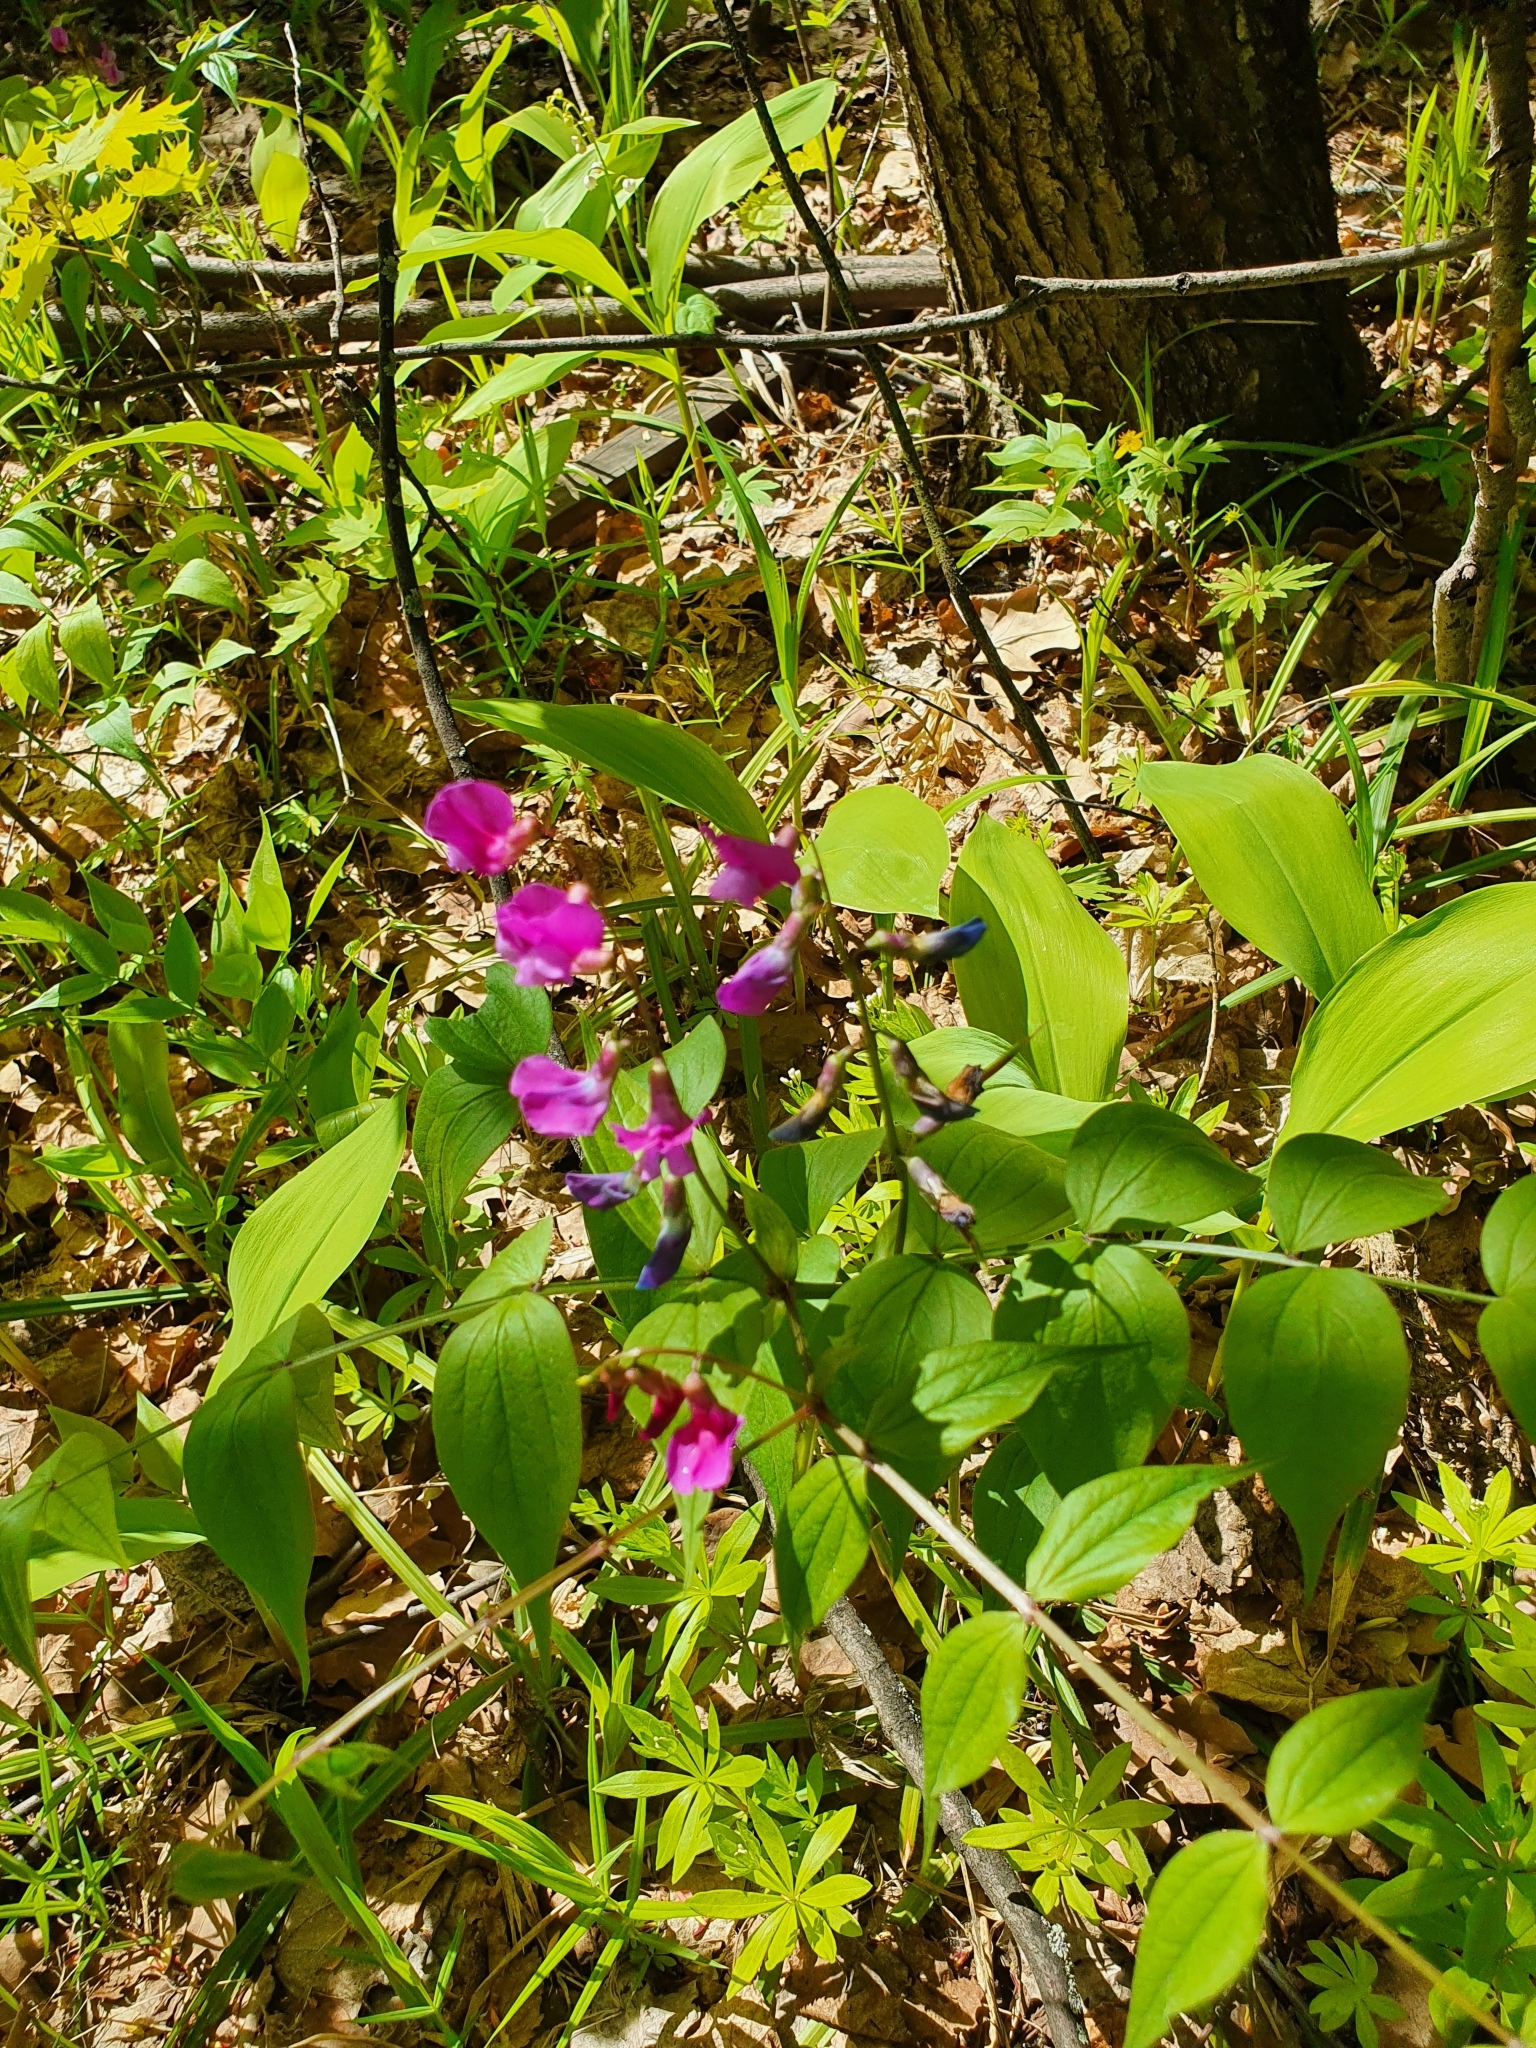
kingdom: Plantae
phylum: Tracheophyta
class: Magnoliopsida
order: Fabales
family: Fabaceae
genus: Lathyrus
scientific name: Lathyrus vernus
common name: Spring pea
